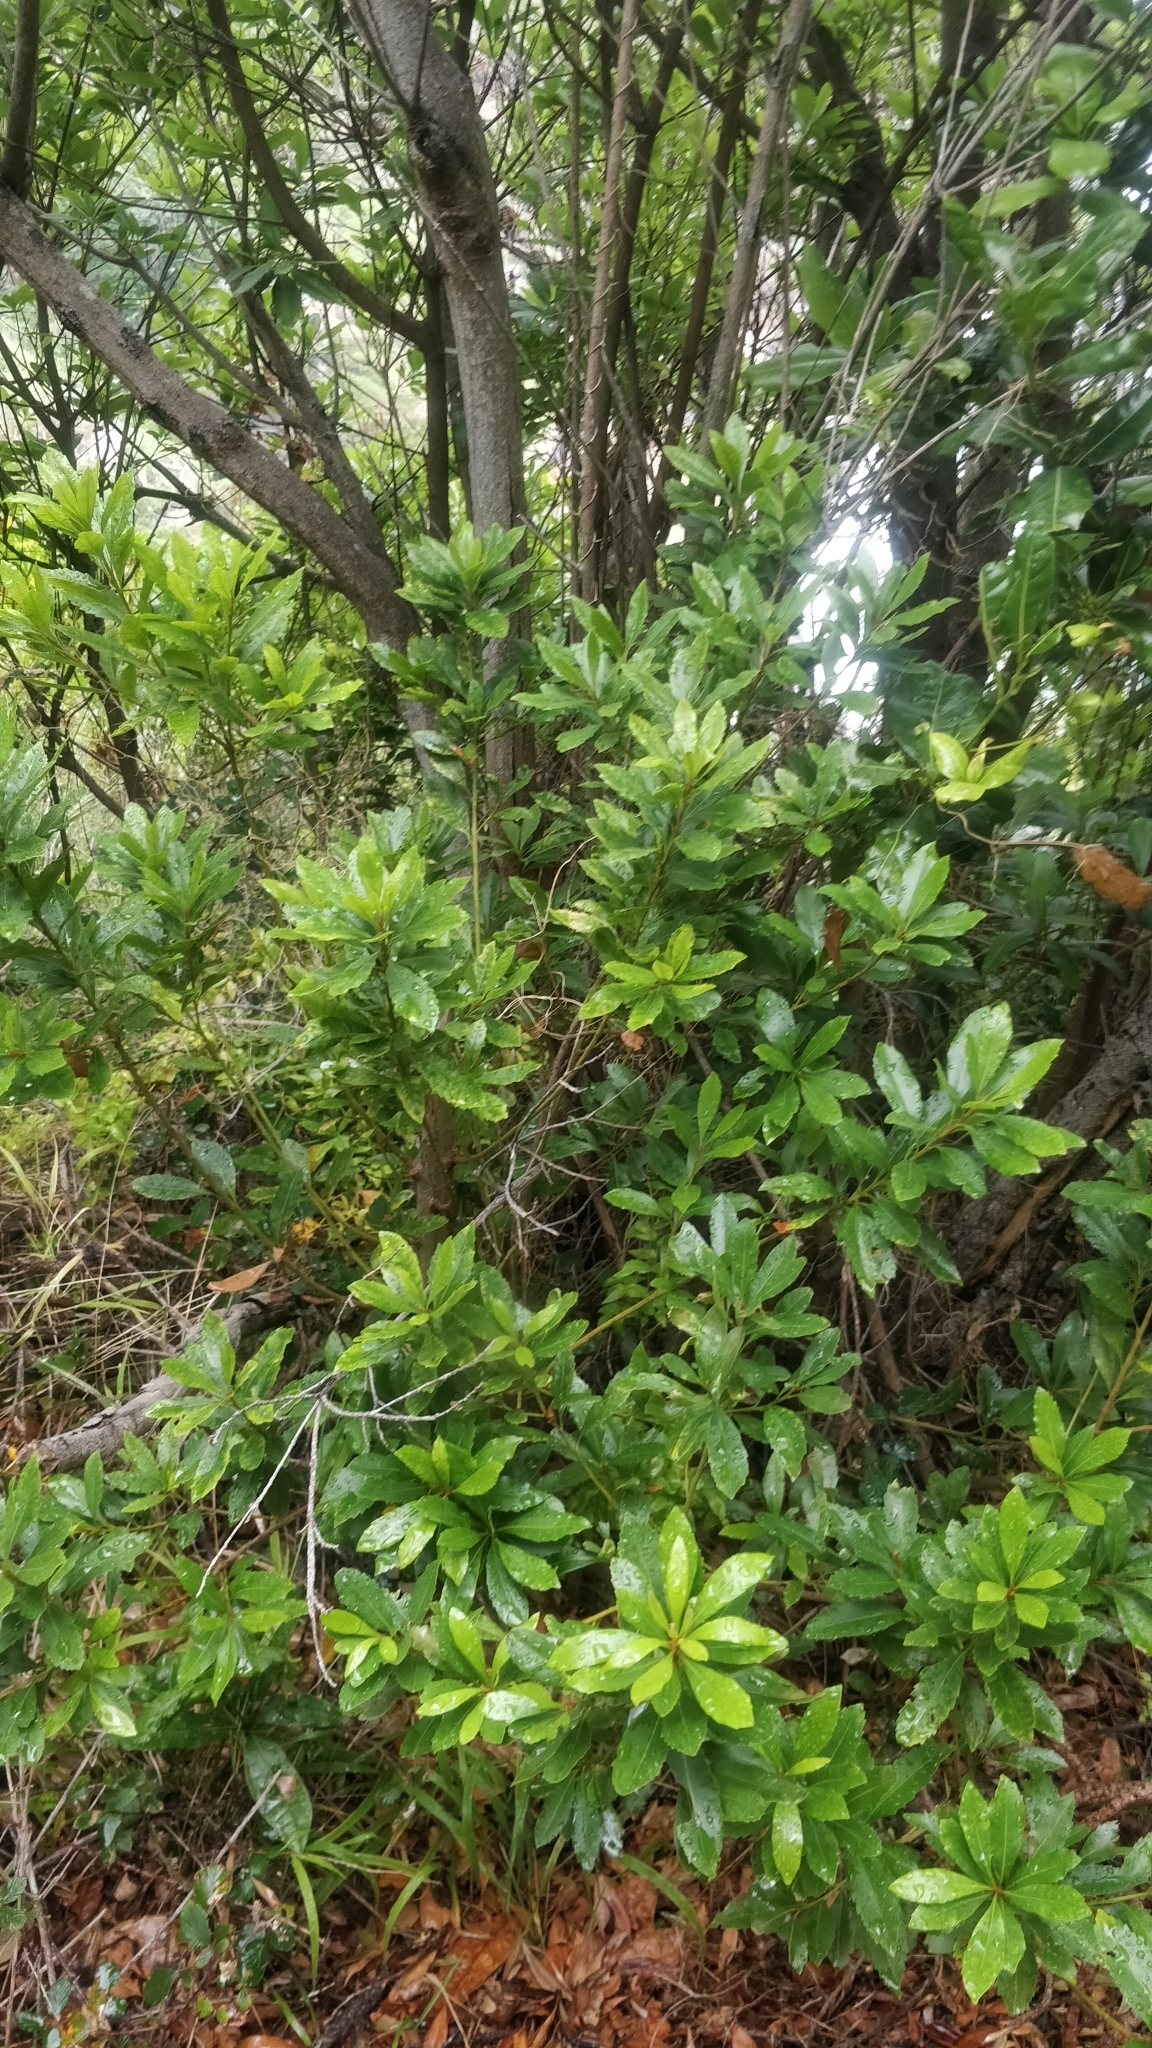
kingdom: Plantae
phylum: Tracheophyta
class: Magnoliopsida
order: Fagales
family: Myricaceae
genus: Morella
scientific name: Morella faya
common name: Firetree
